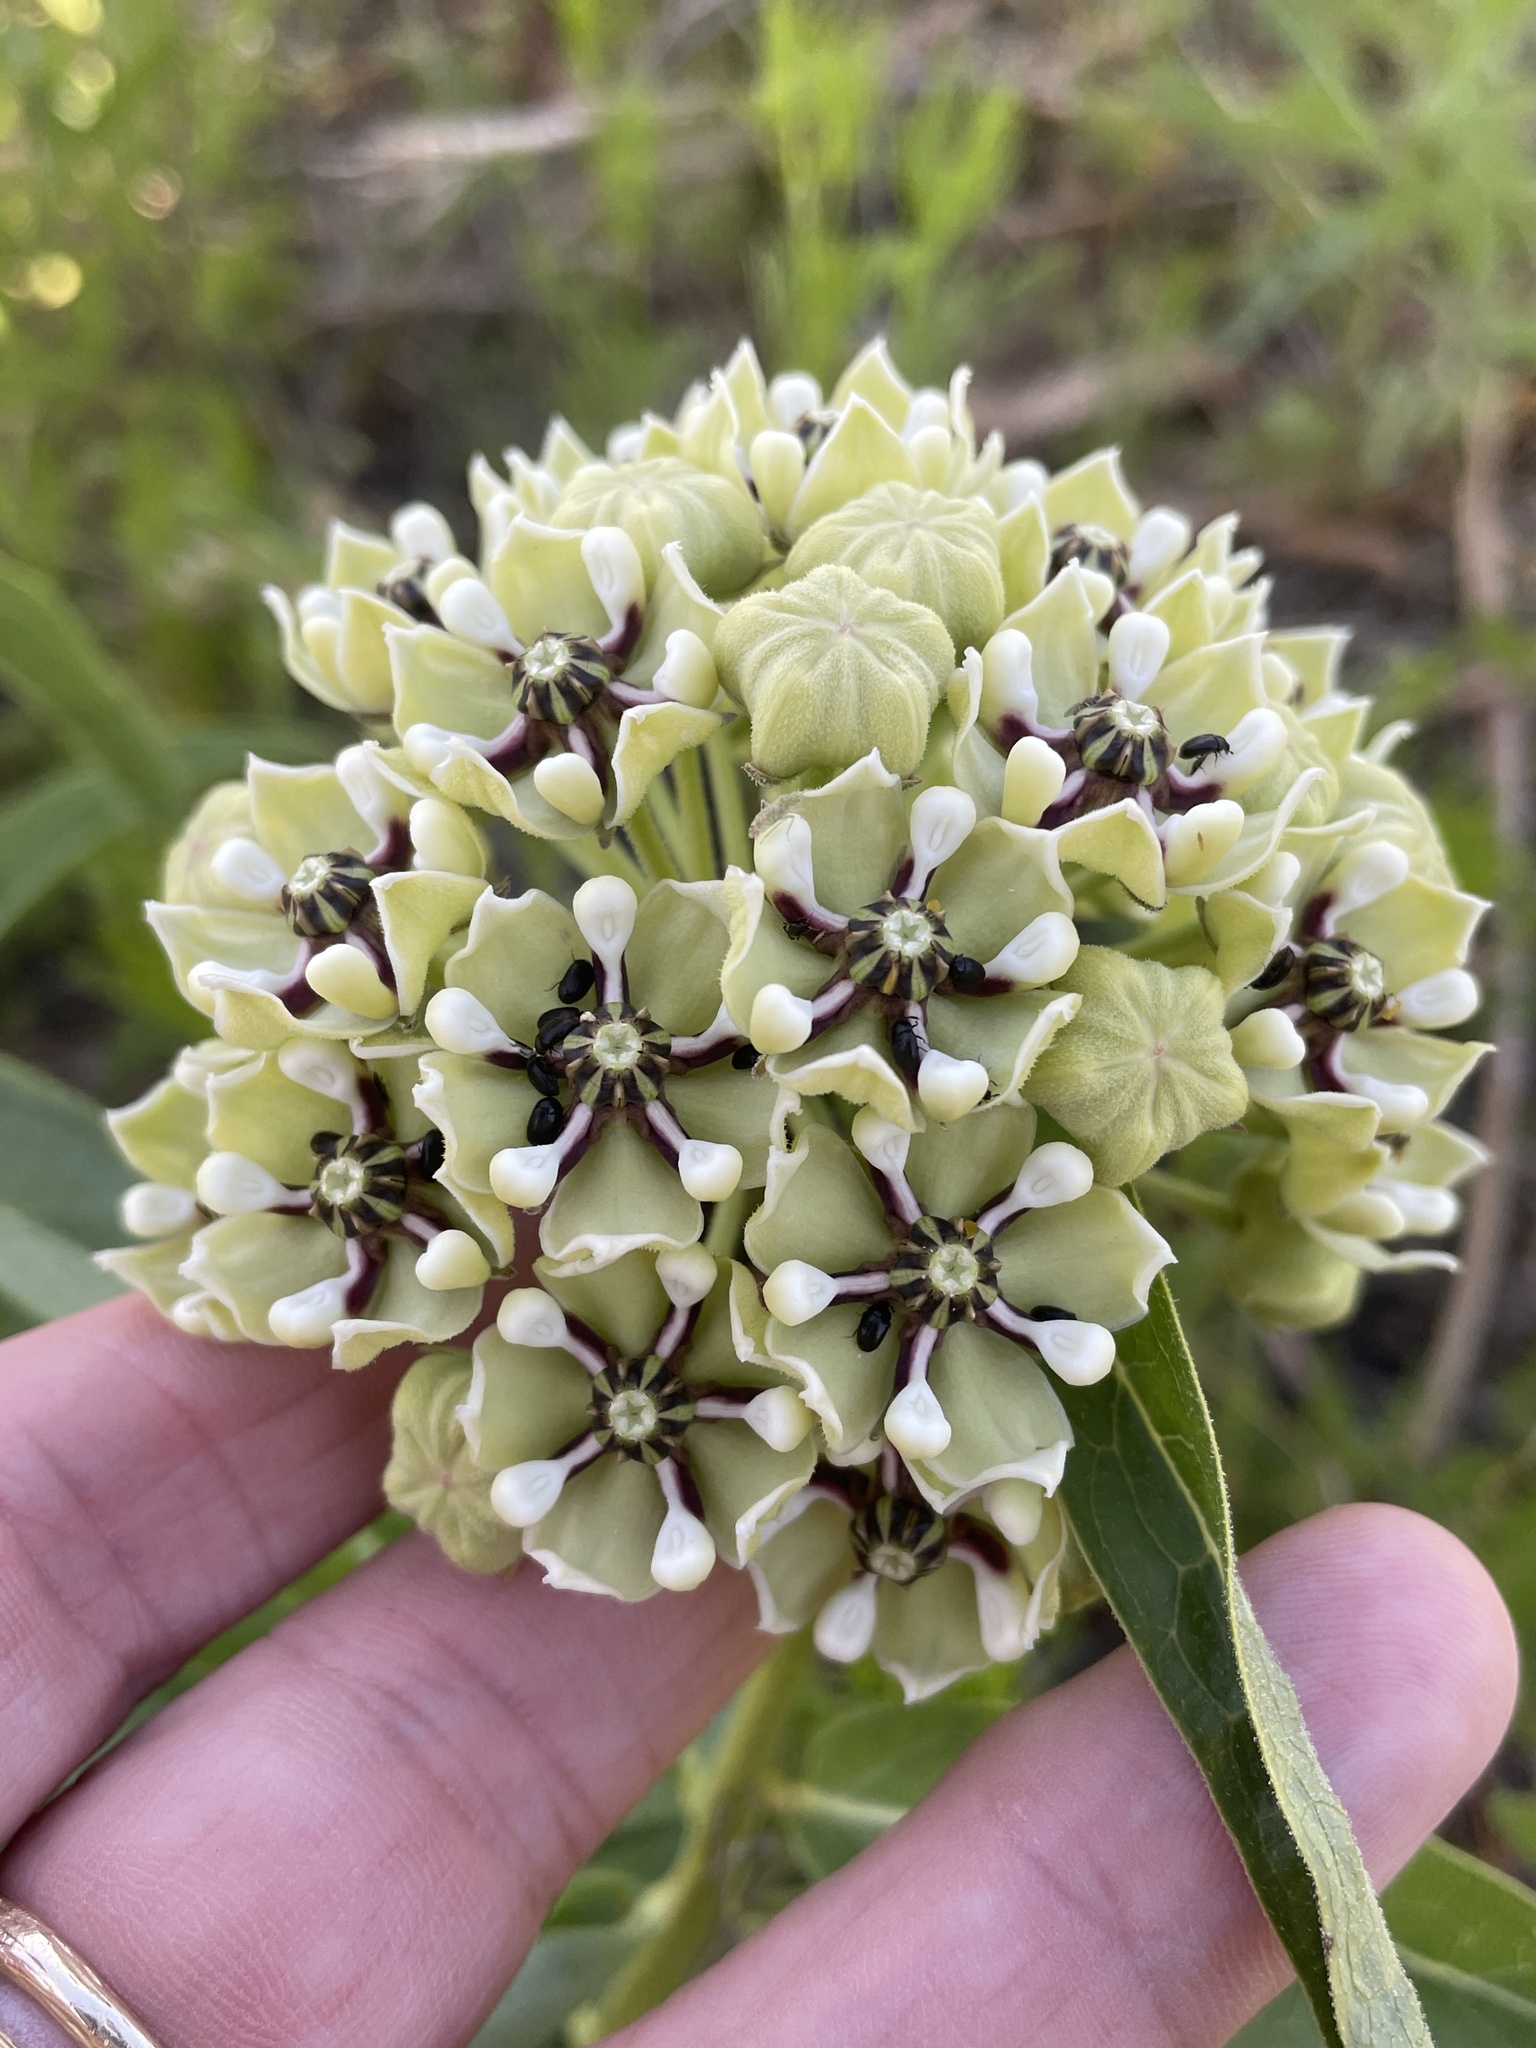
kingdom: Plantae
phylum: Tracheophyta
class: Magnoliopsida
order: Gentianales
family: Apocynaceae
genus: Asclepias
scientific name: Asclepias asperula
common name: Antelope horns
